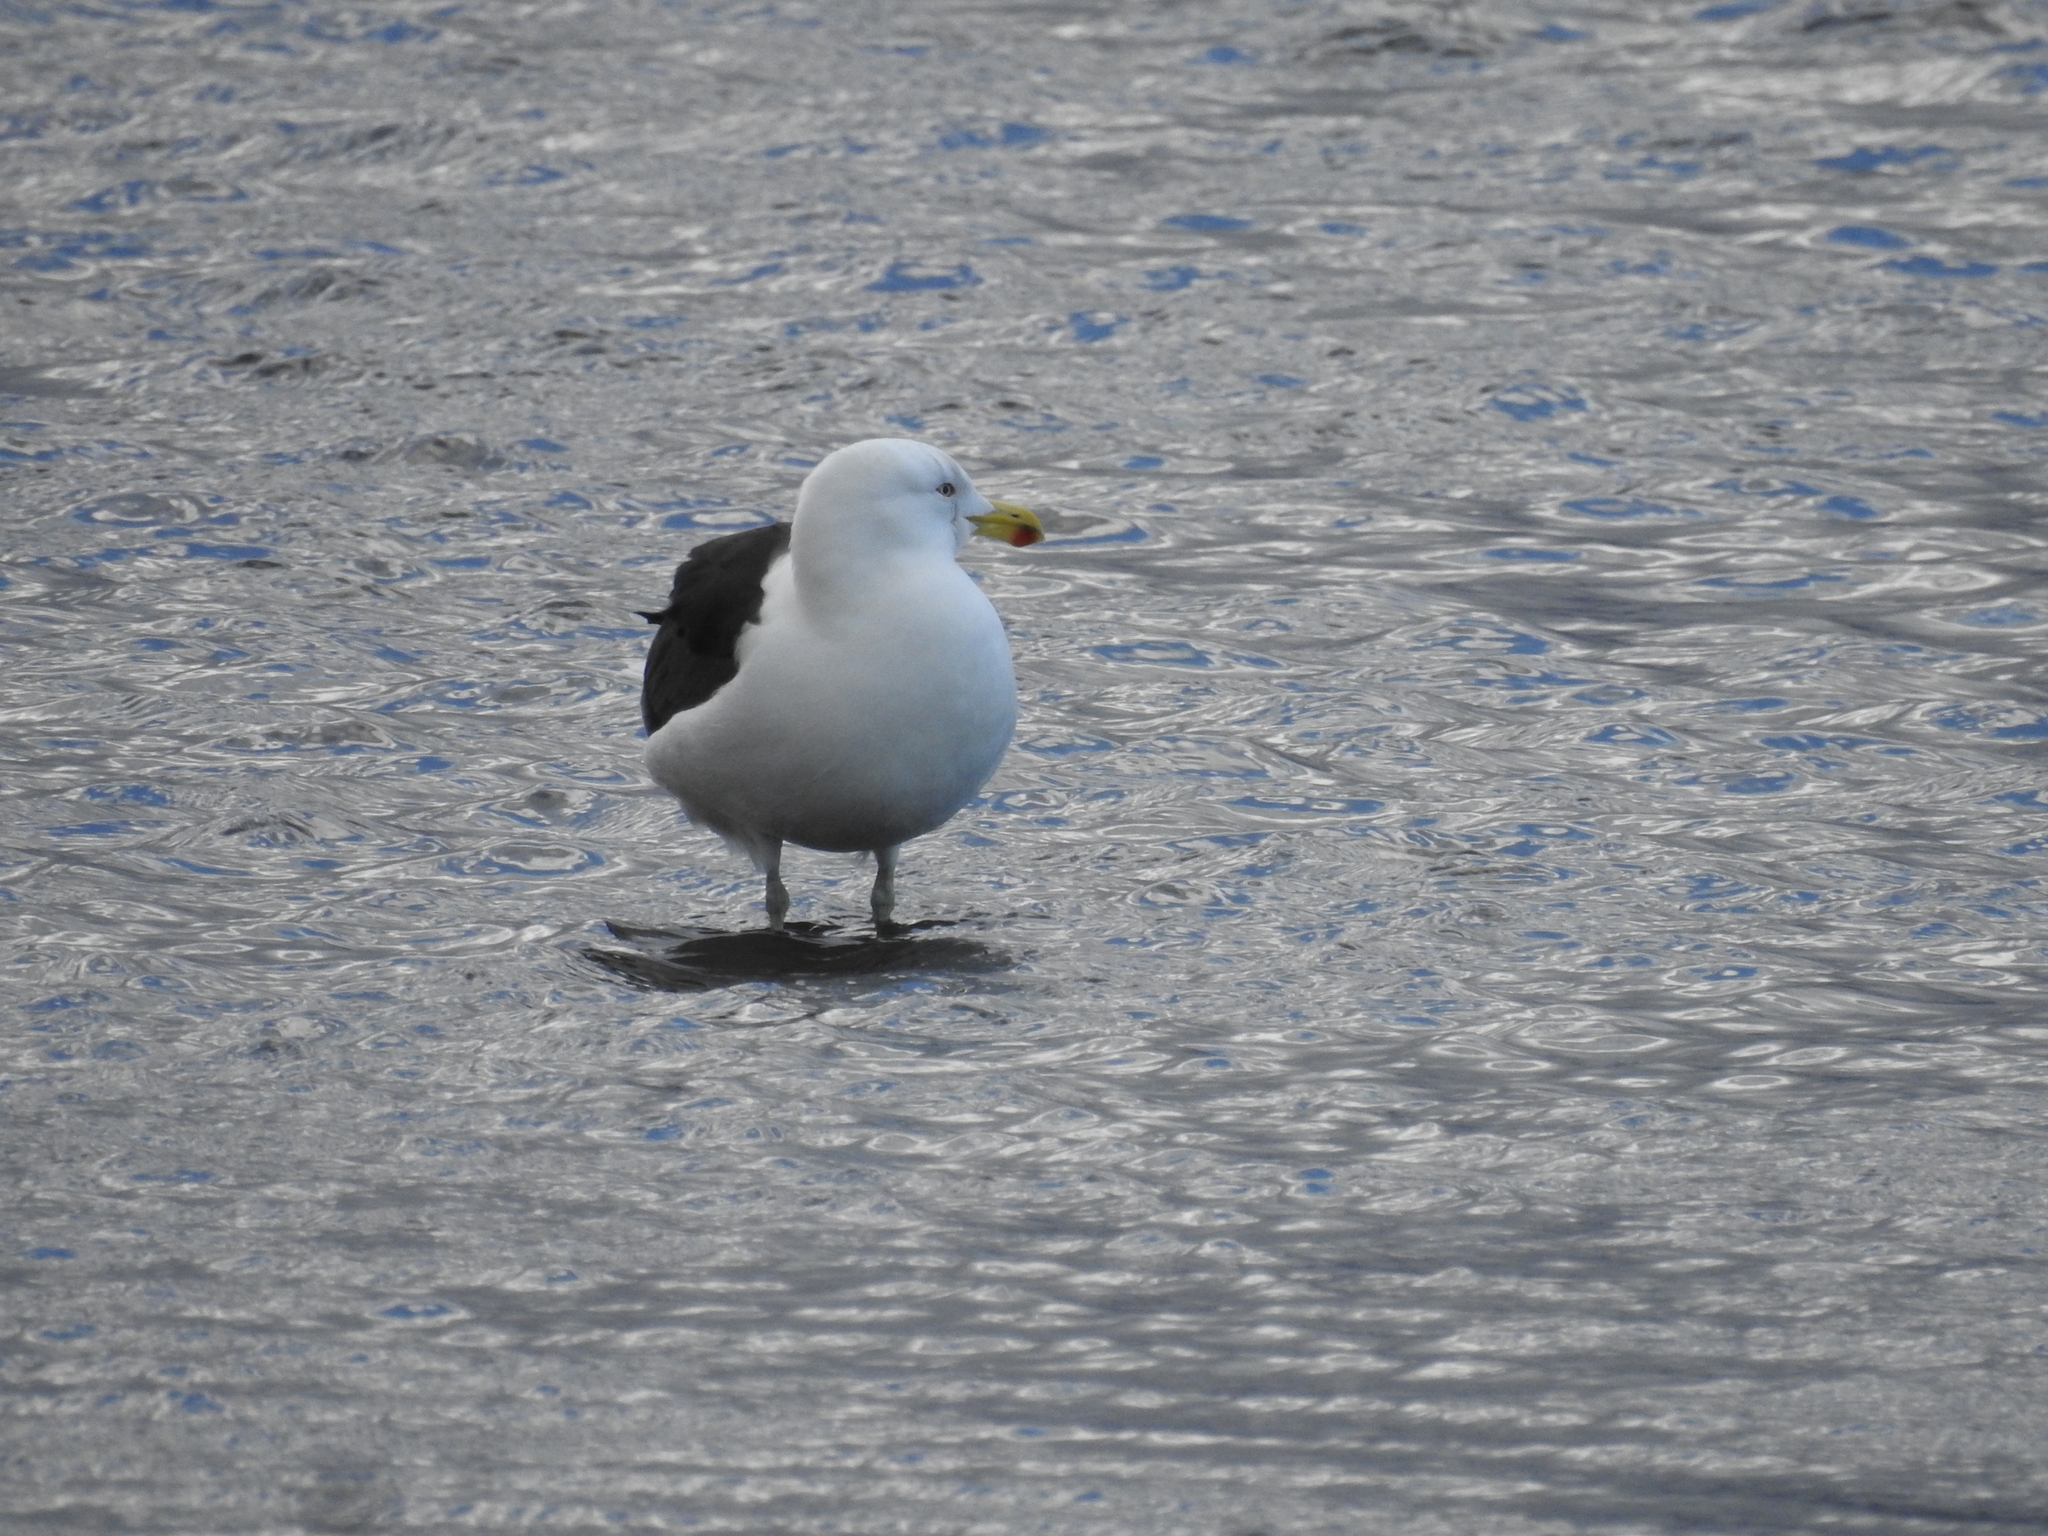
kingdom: Animalia
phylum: Chordata
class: Aves
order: Charadriiformes
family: Laridae
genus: Larus
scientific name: Larus dominicanus
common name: Kelp gull
